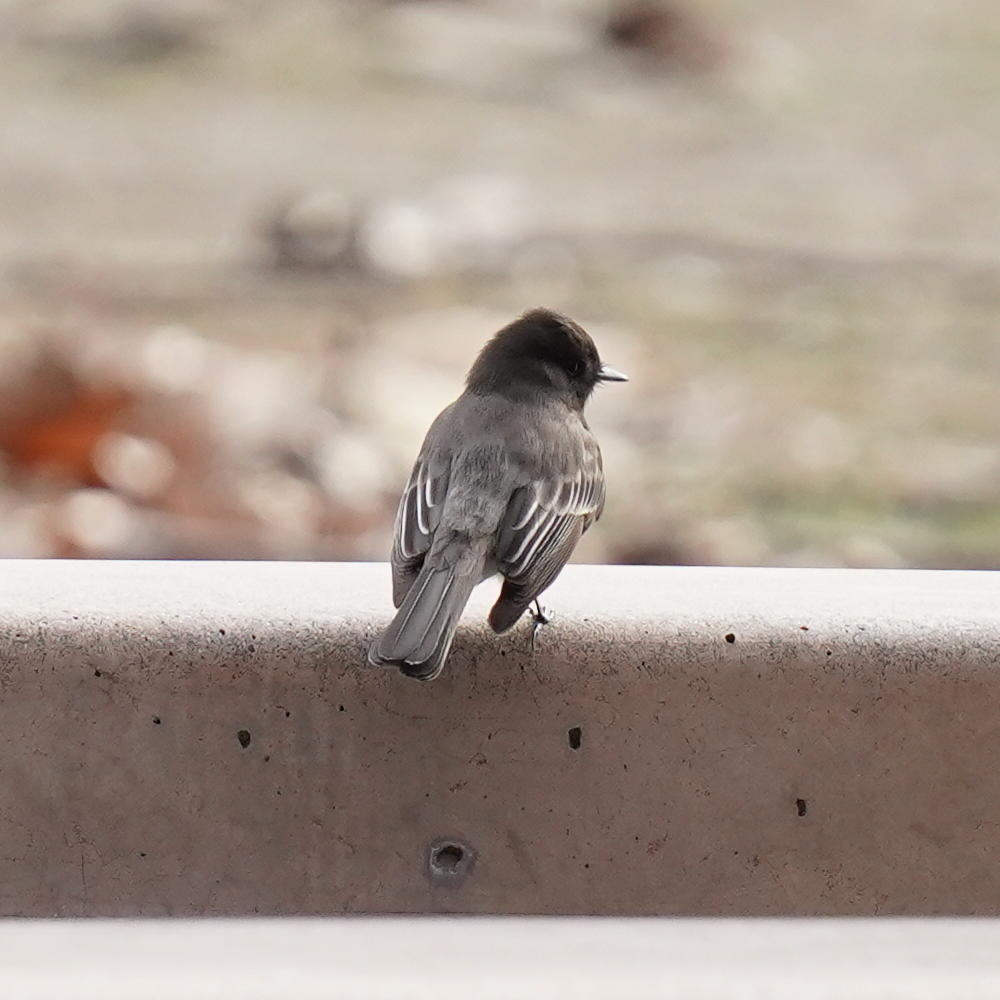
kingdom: Animalia
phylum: Chordata
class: Aves
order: Passeriformes
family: Tyrannidae
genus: Sayornis
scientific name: Sayornis nigricans
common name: Black phoebe
